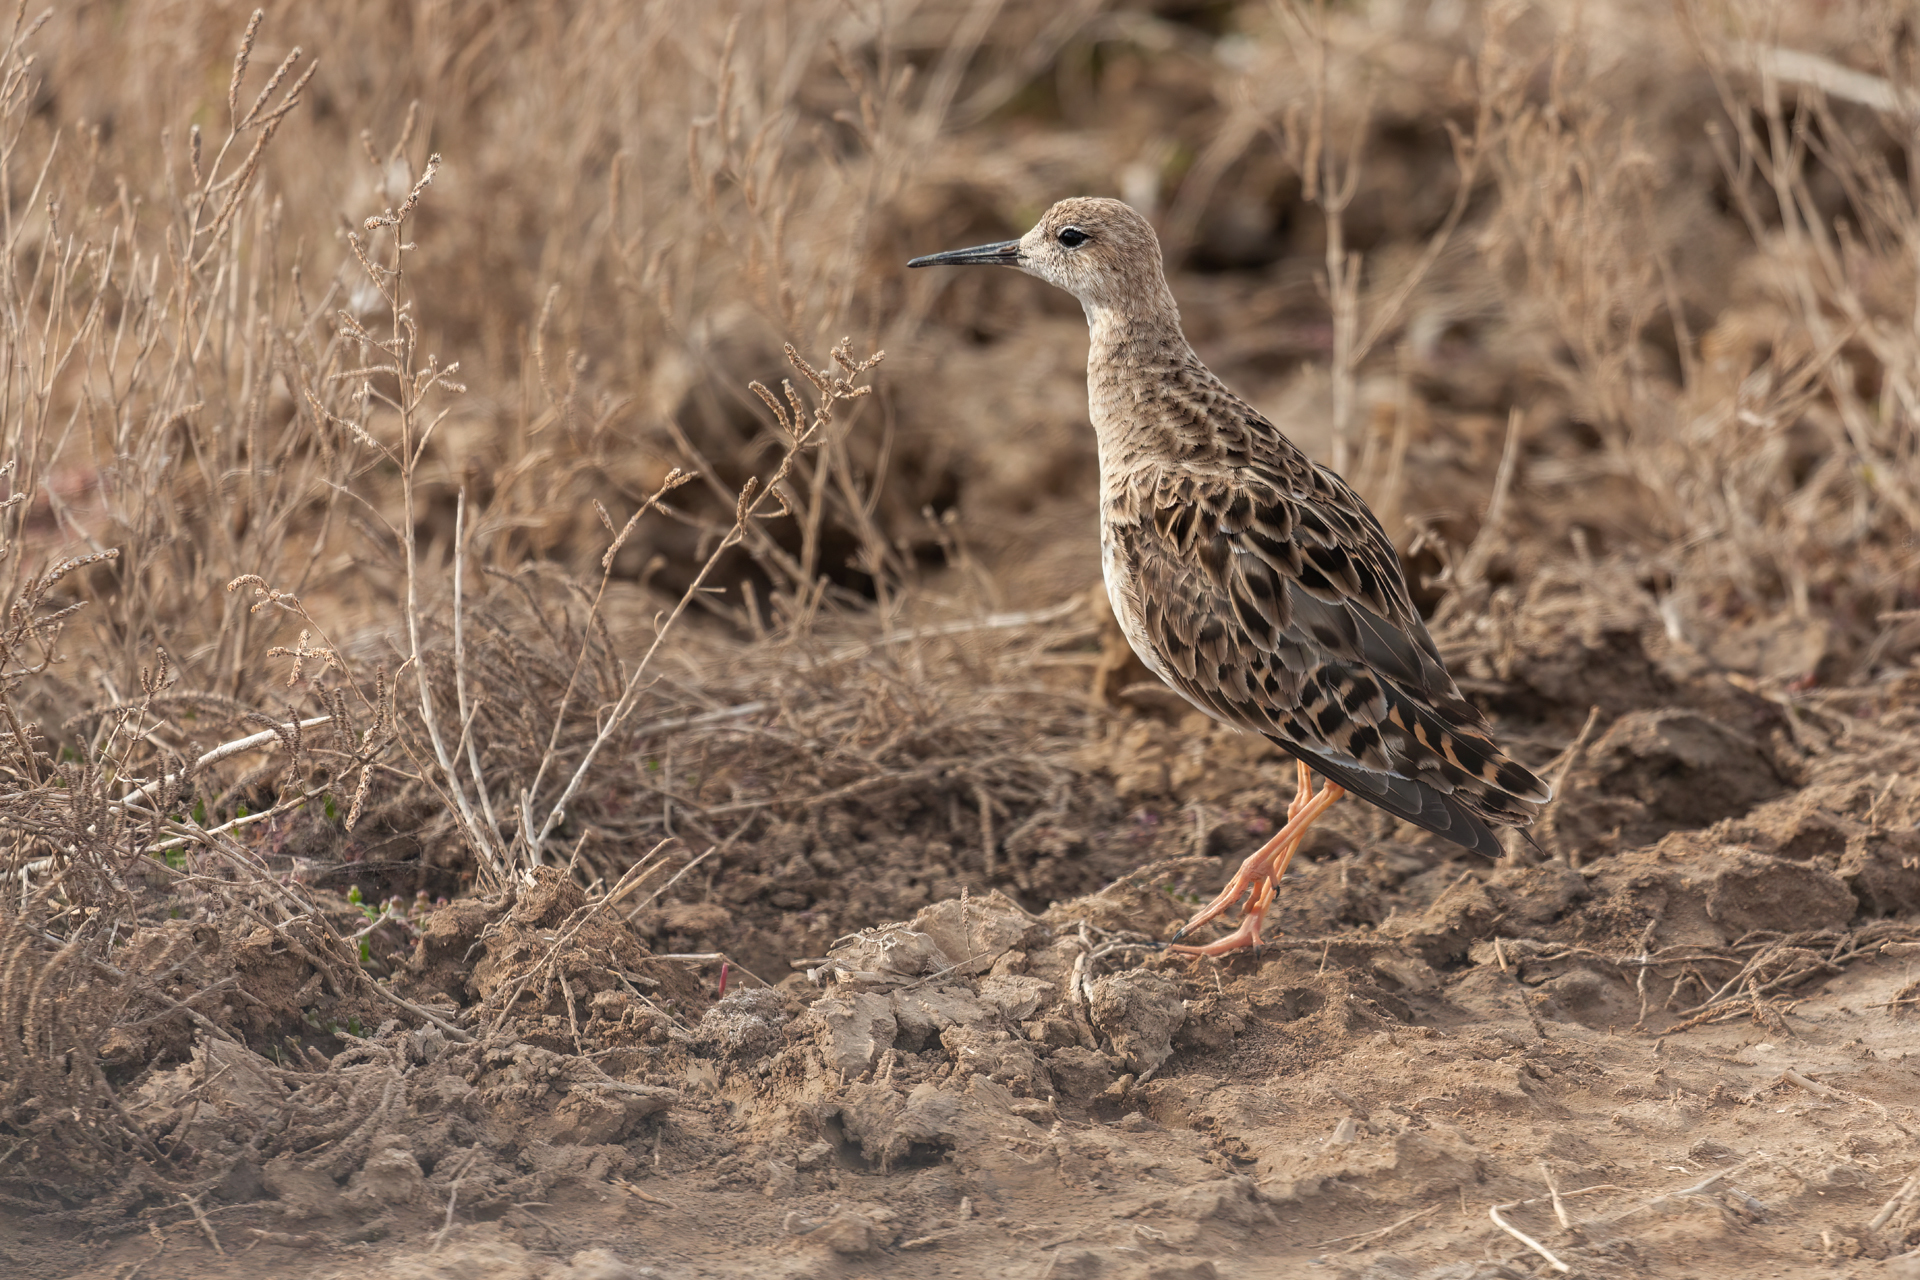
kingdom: Animalia
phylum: Chordata
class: Aves
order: Charadriiformes
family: Scolopacidae
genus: Calidris
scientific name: Calidris pugnax
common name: Ruff
